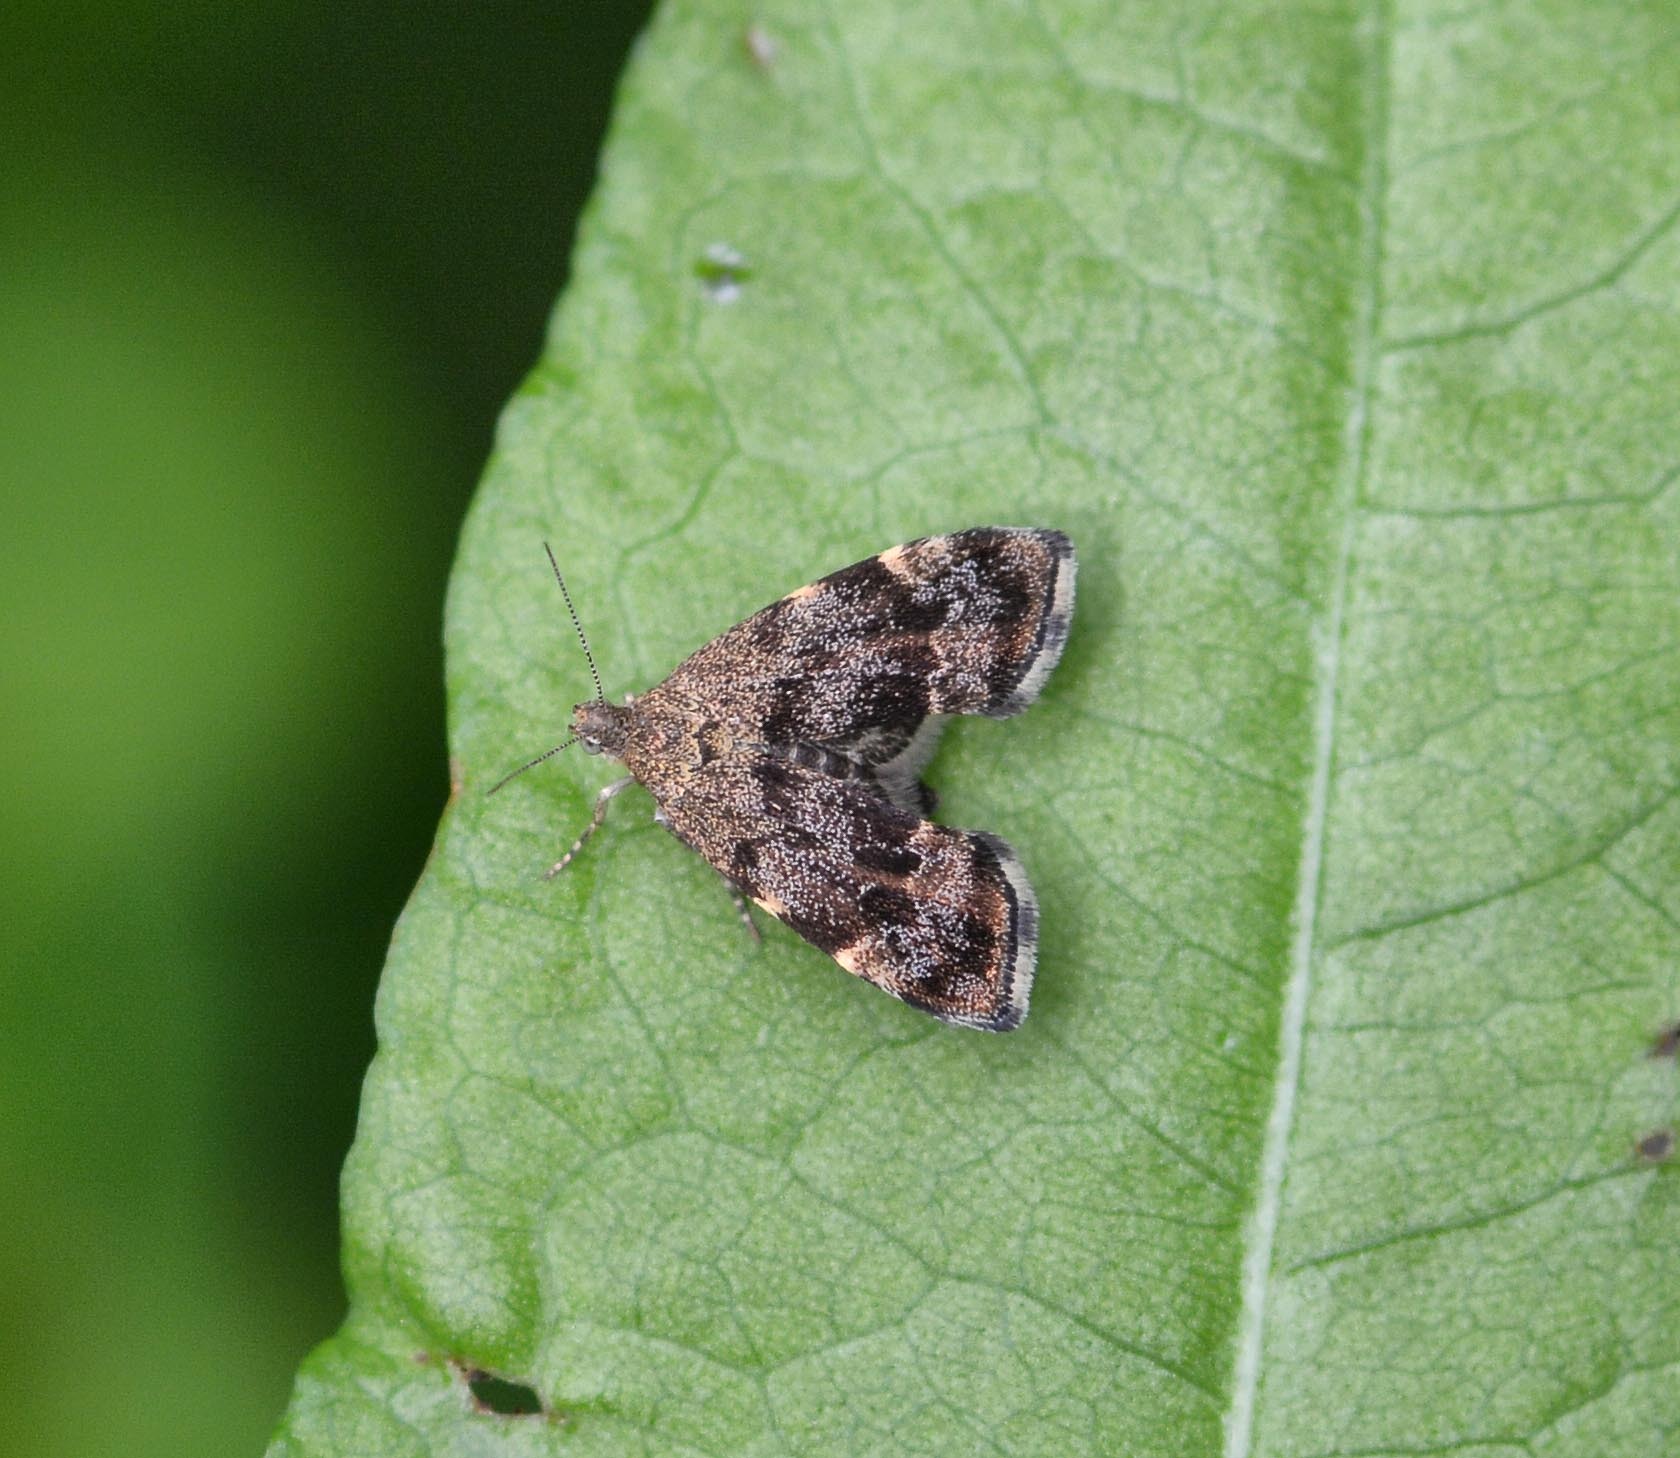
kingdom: Animalia
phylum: Arthropoda
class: Insecta
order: Lepidoptera
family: Choreutidae
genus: Anthophila
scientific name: Anthophila fabriciana
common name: Nettle-tap
